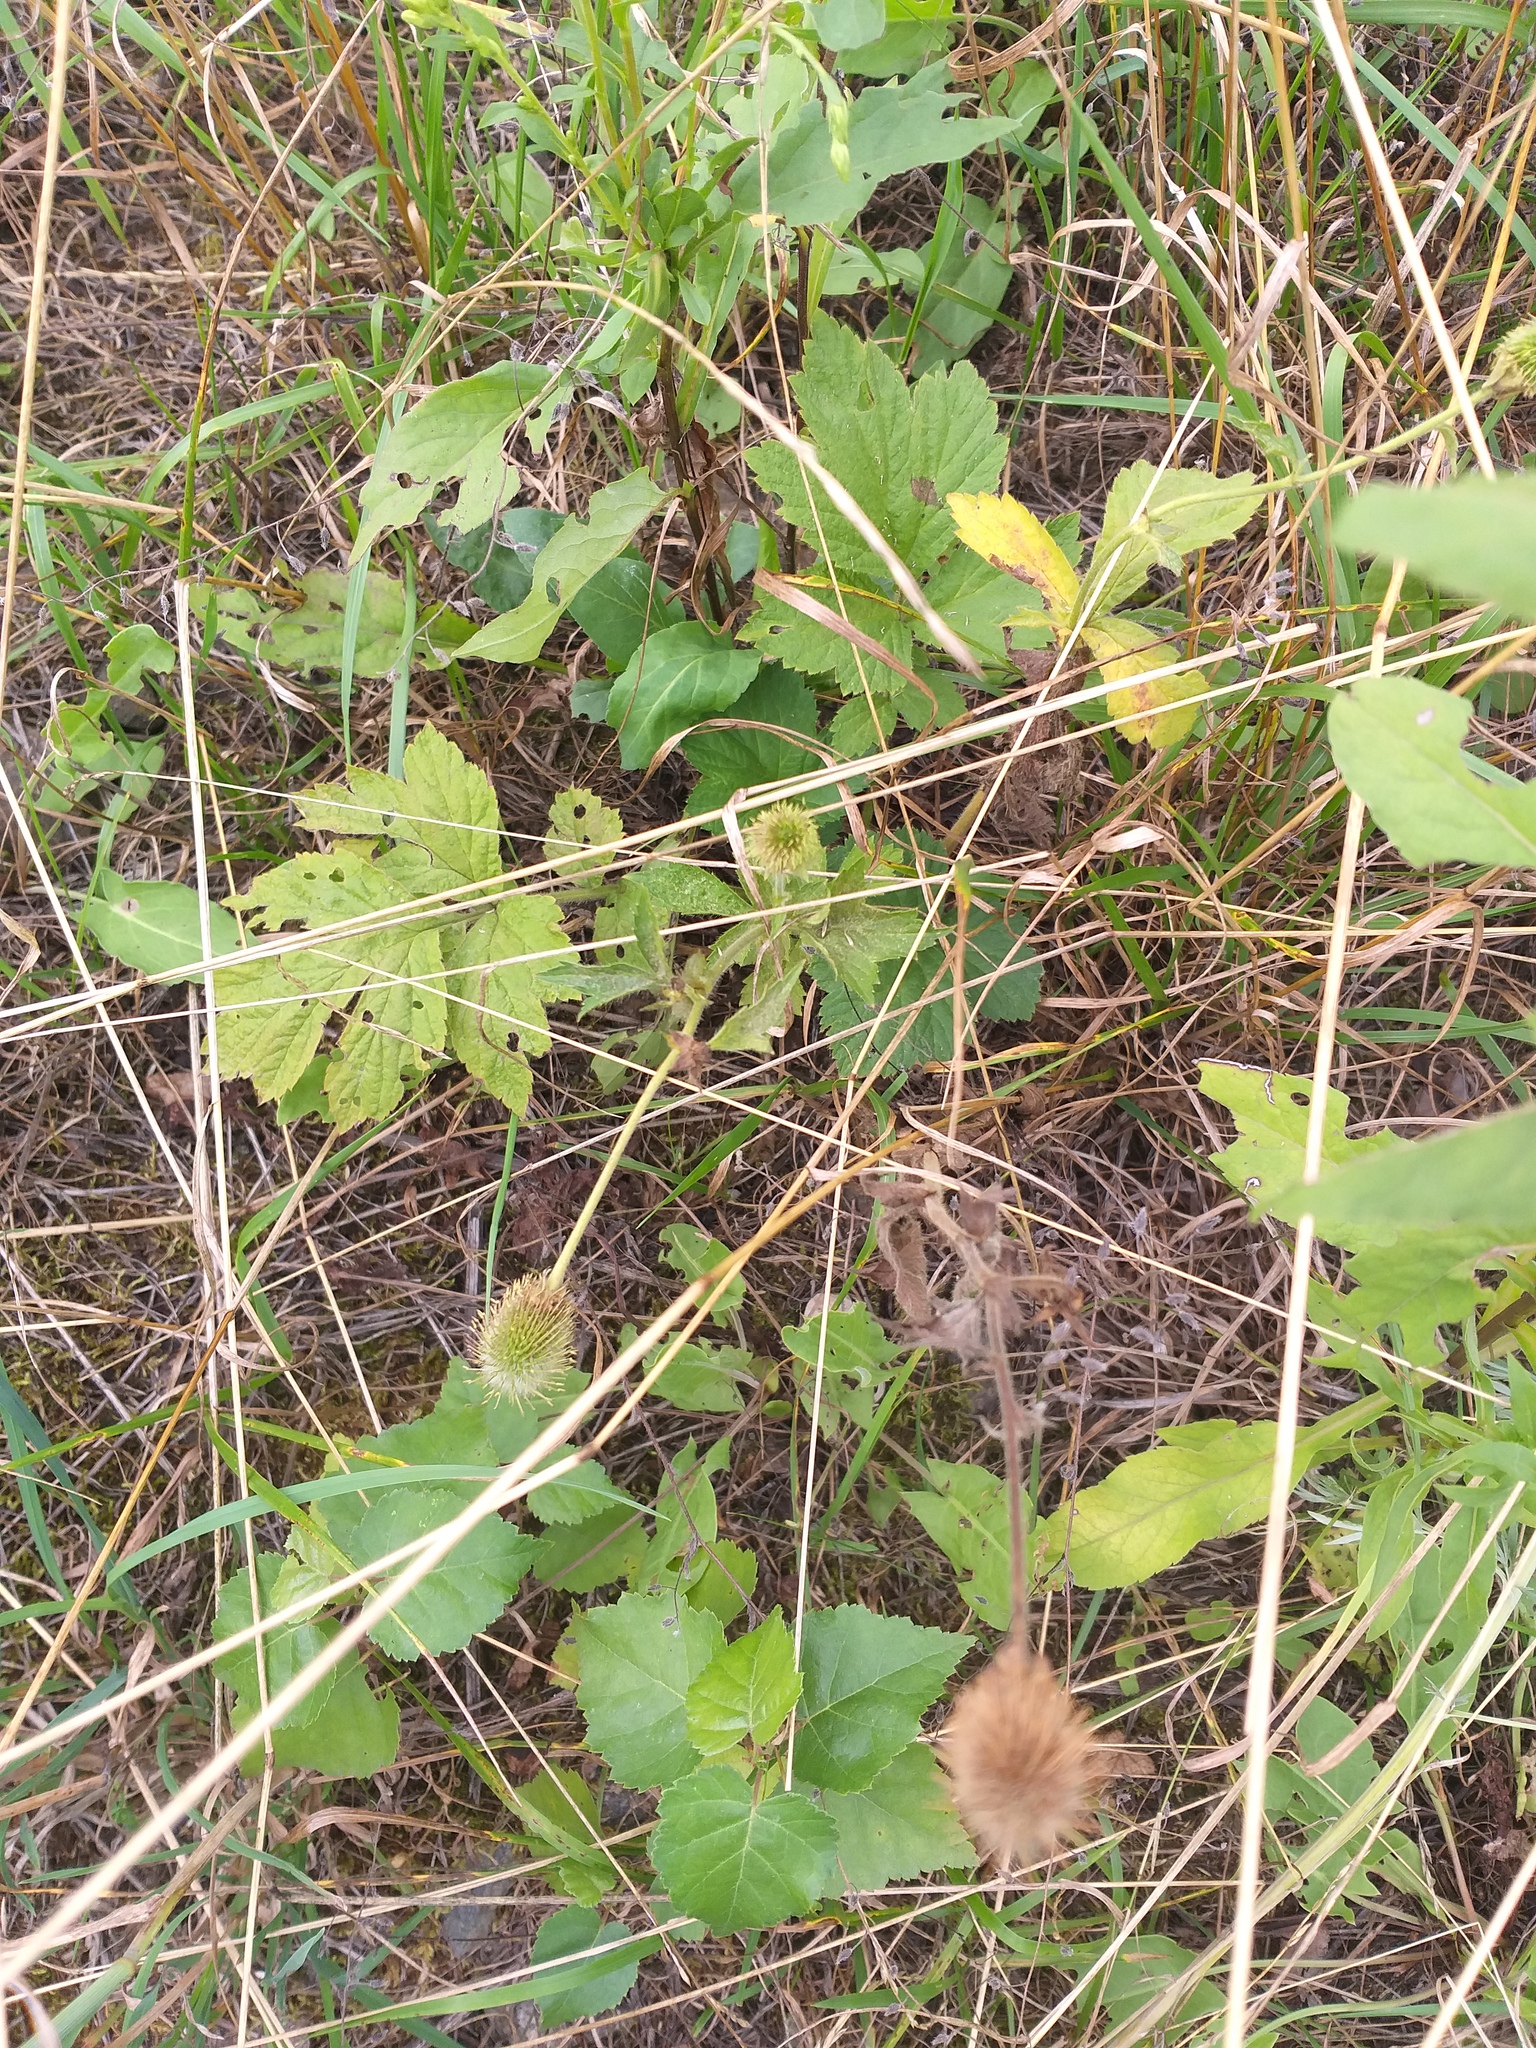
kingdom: Plantae
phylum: Tracheophyta
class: Magnoliopsida
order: Rosales
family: Rosaceae
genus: Geum
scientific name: Geum aleppicum
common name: Yellow avens
